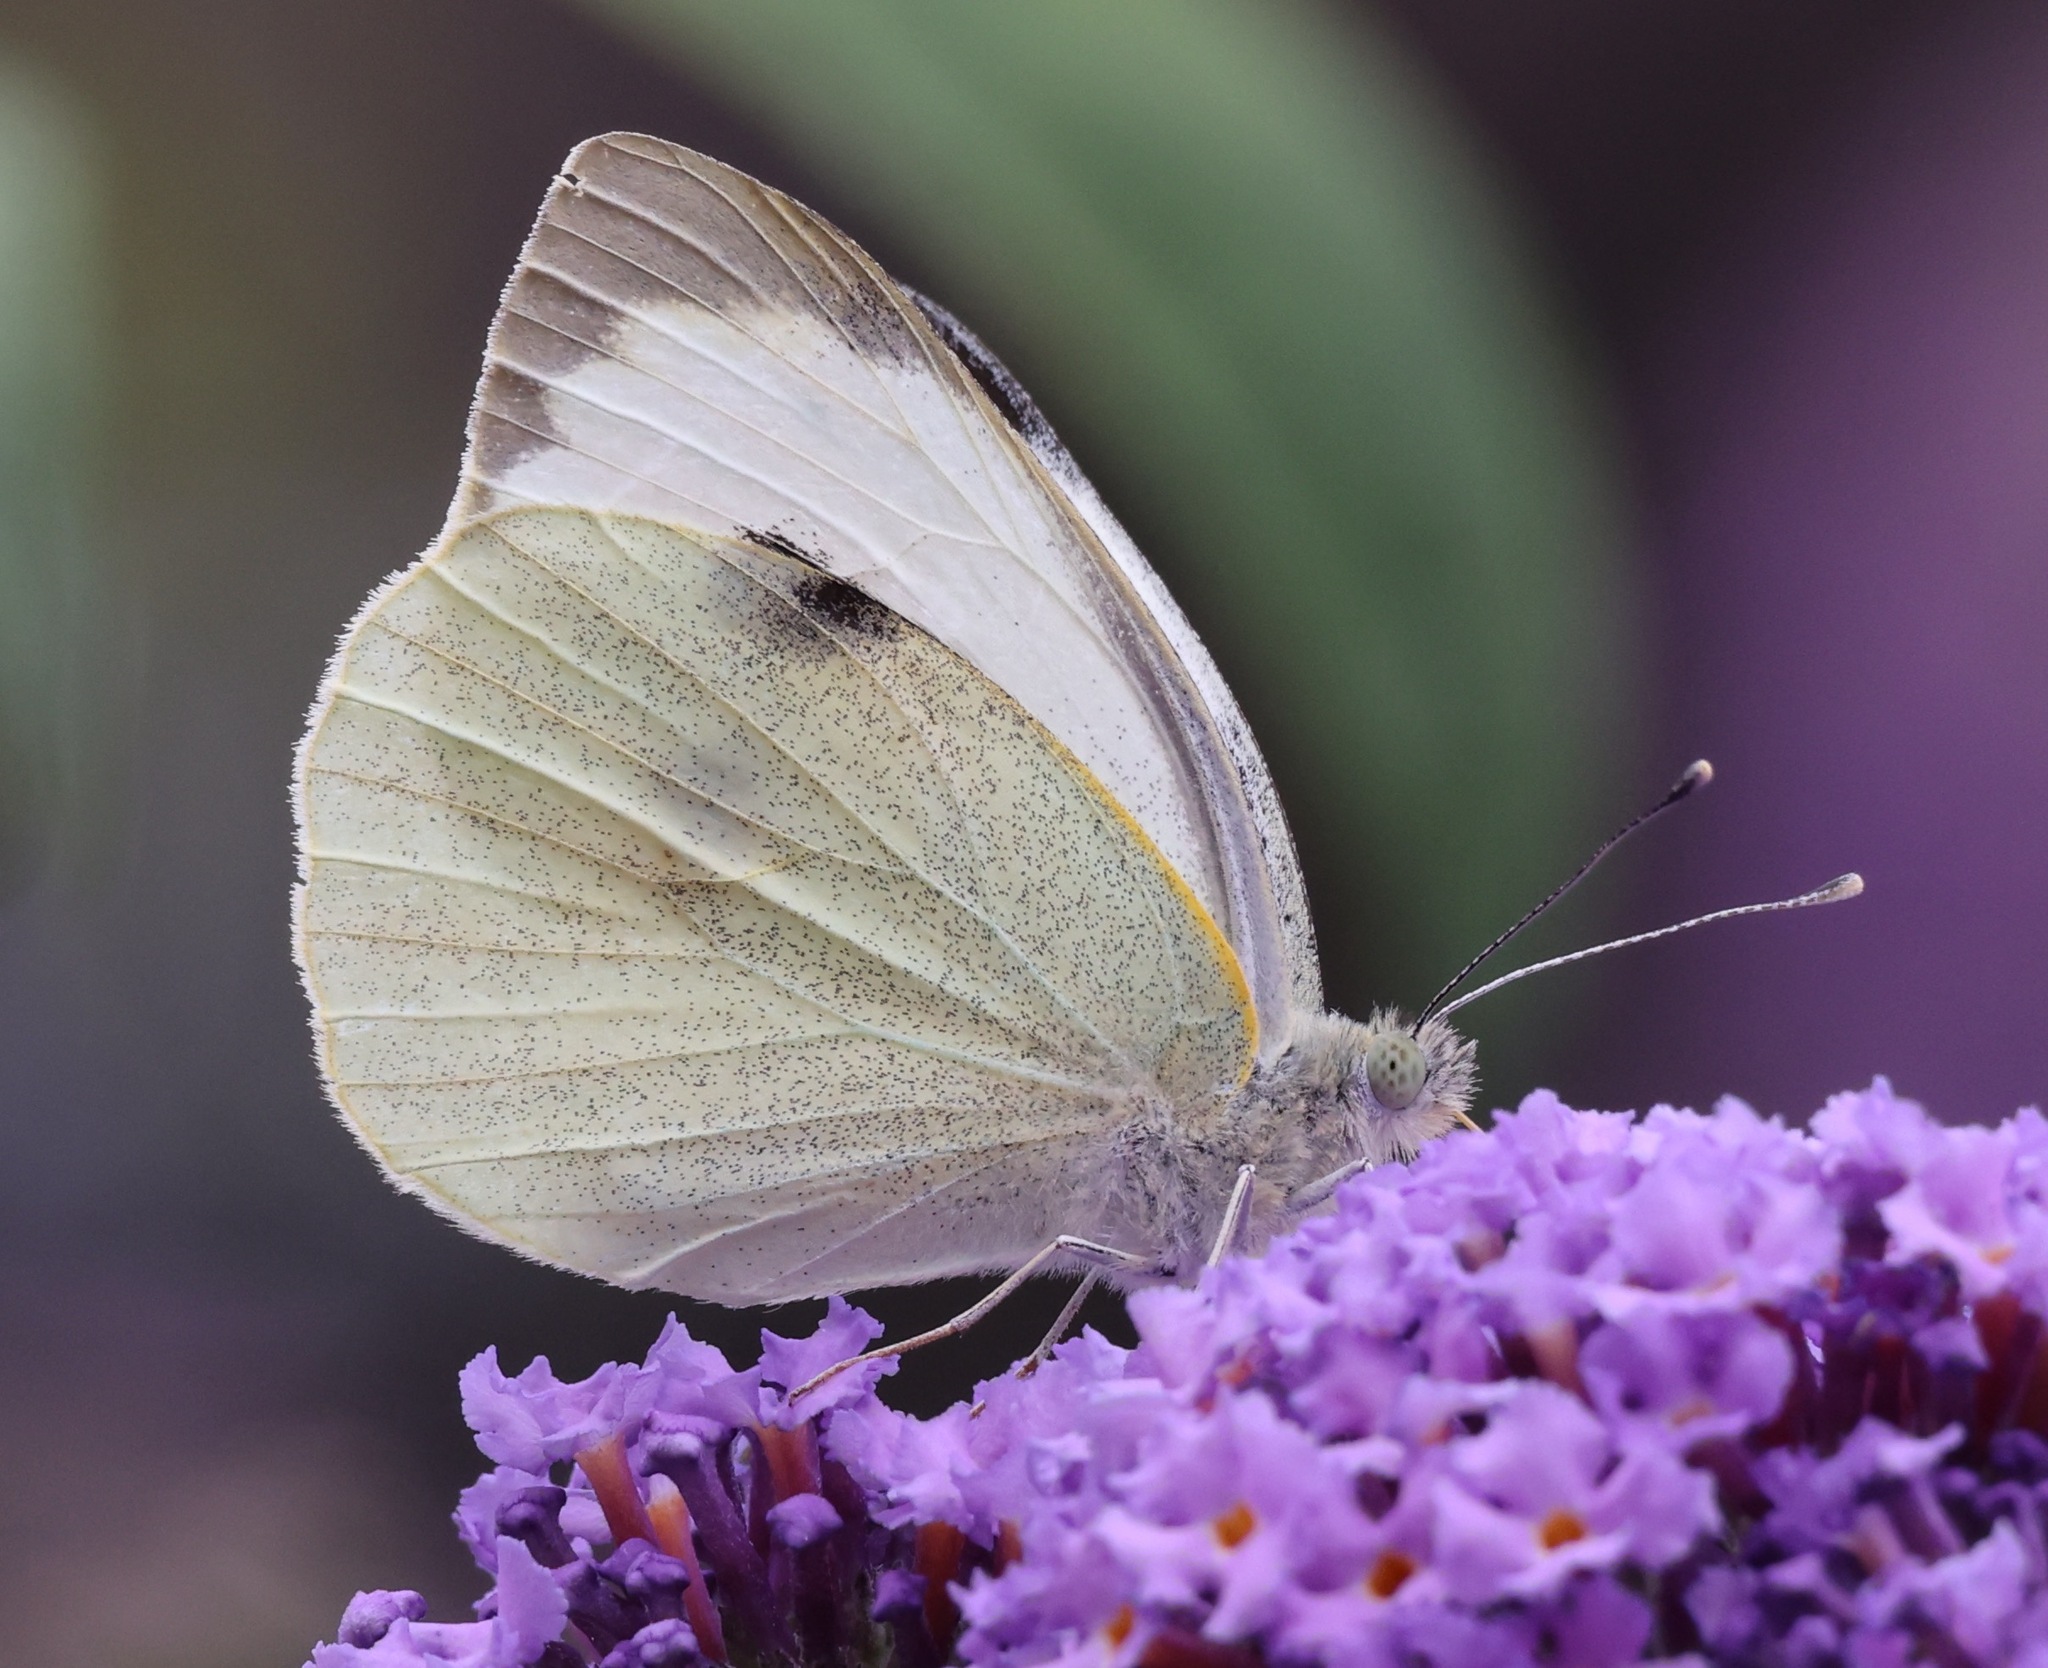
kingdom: Animalia
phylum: Arthropoda
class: Insecta
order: Lepidoptera
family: Pieridae
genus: Pieris
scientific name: Pieris brassicae
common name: Large white
